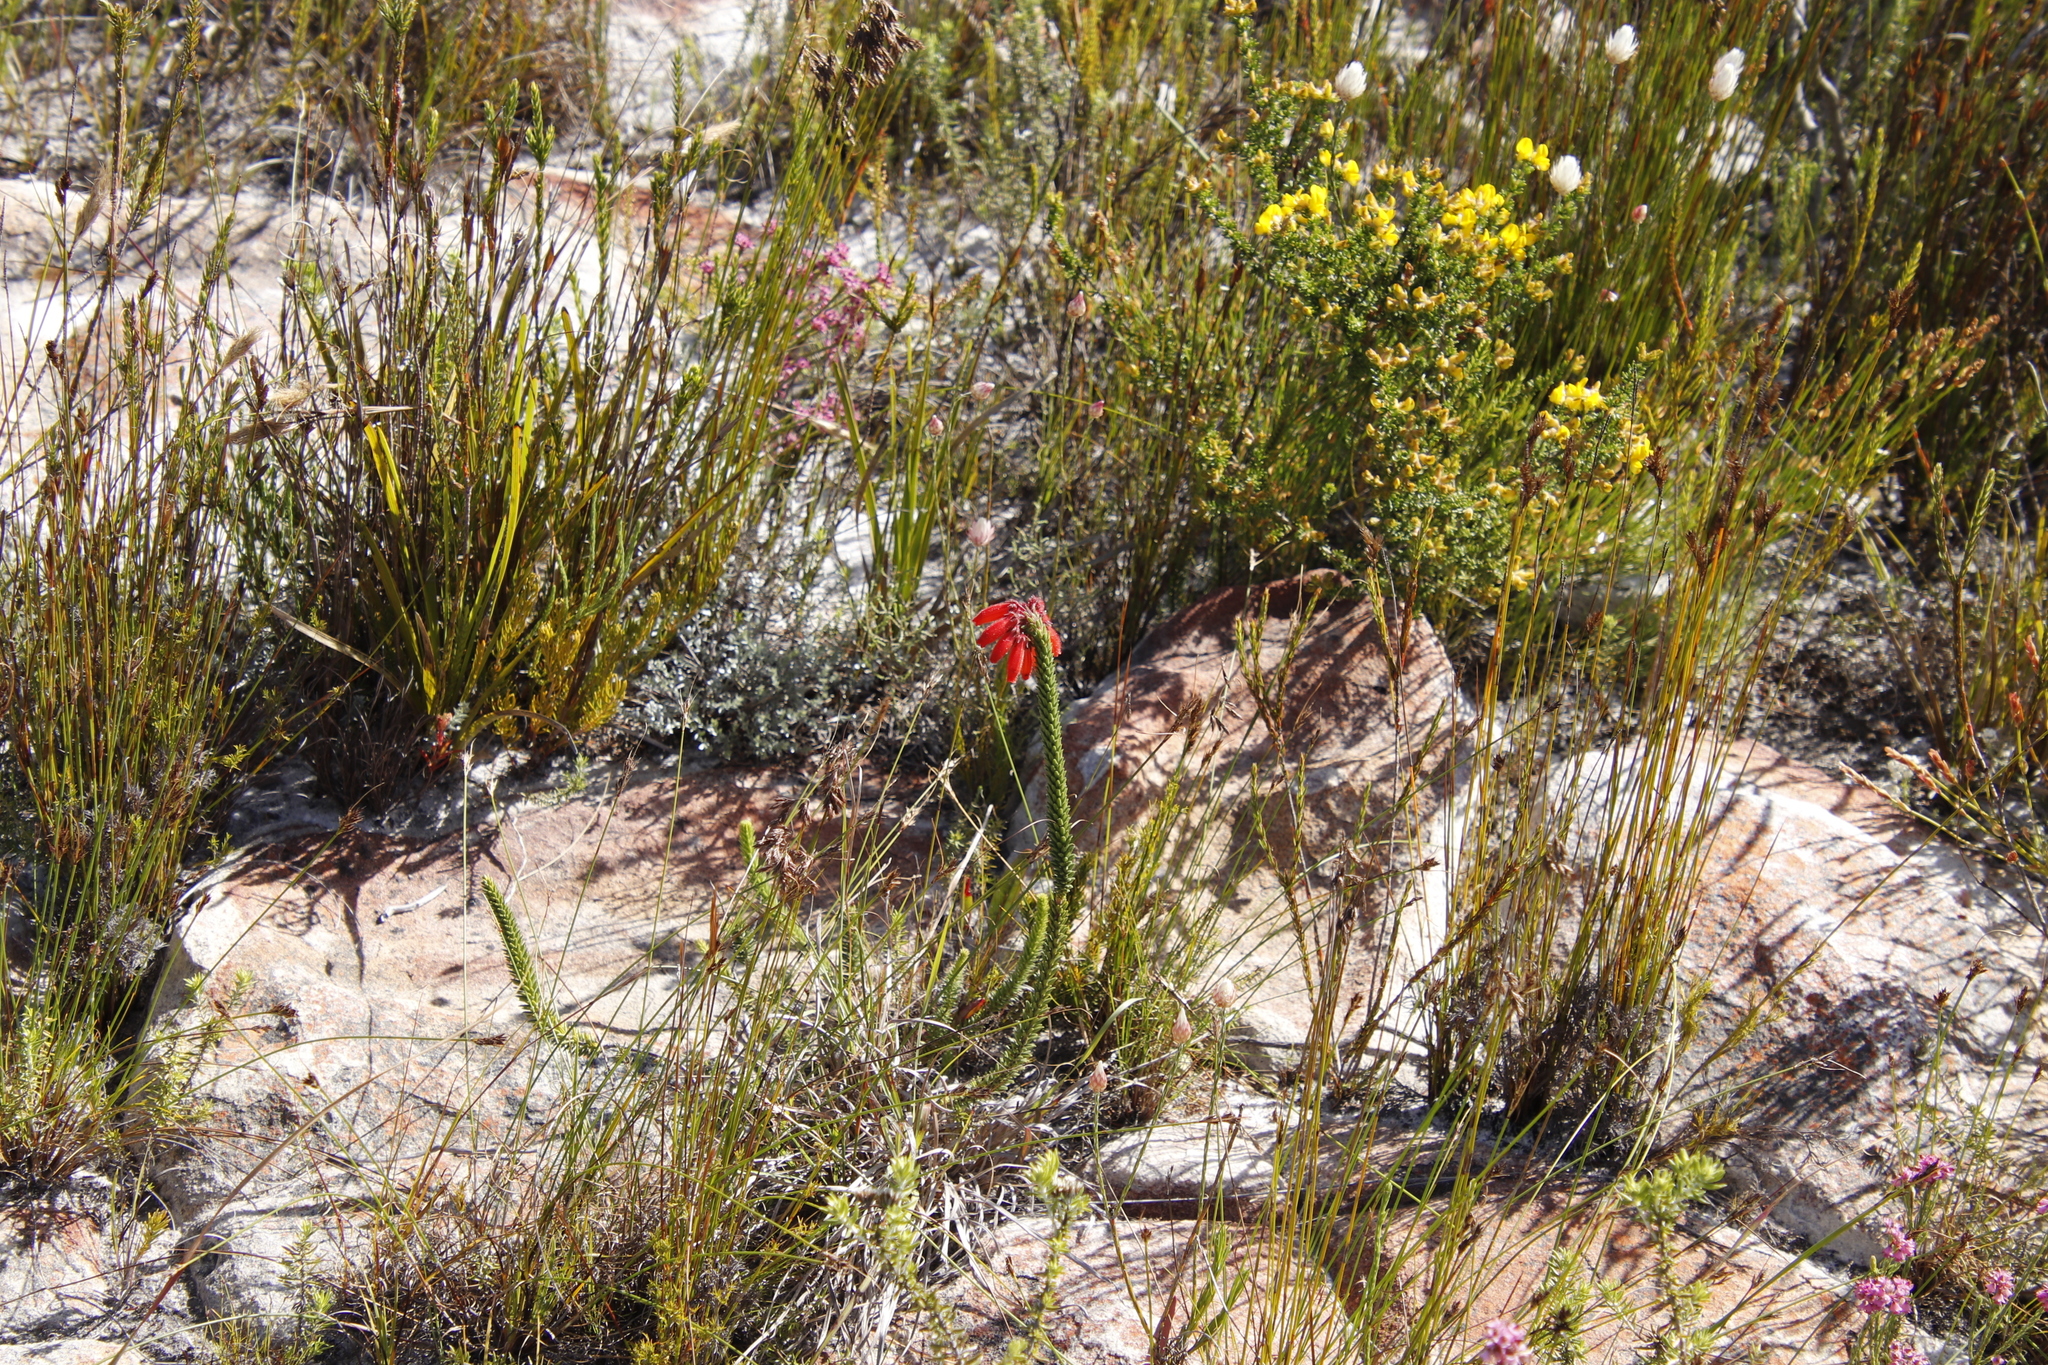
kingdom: Plantae
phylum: Tracheophyta
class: Magnoliopsida
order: Ericales
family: Ericaceae
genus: Erica
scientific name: Erica cerinthoides
